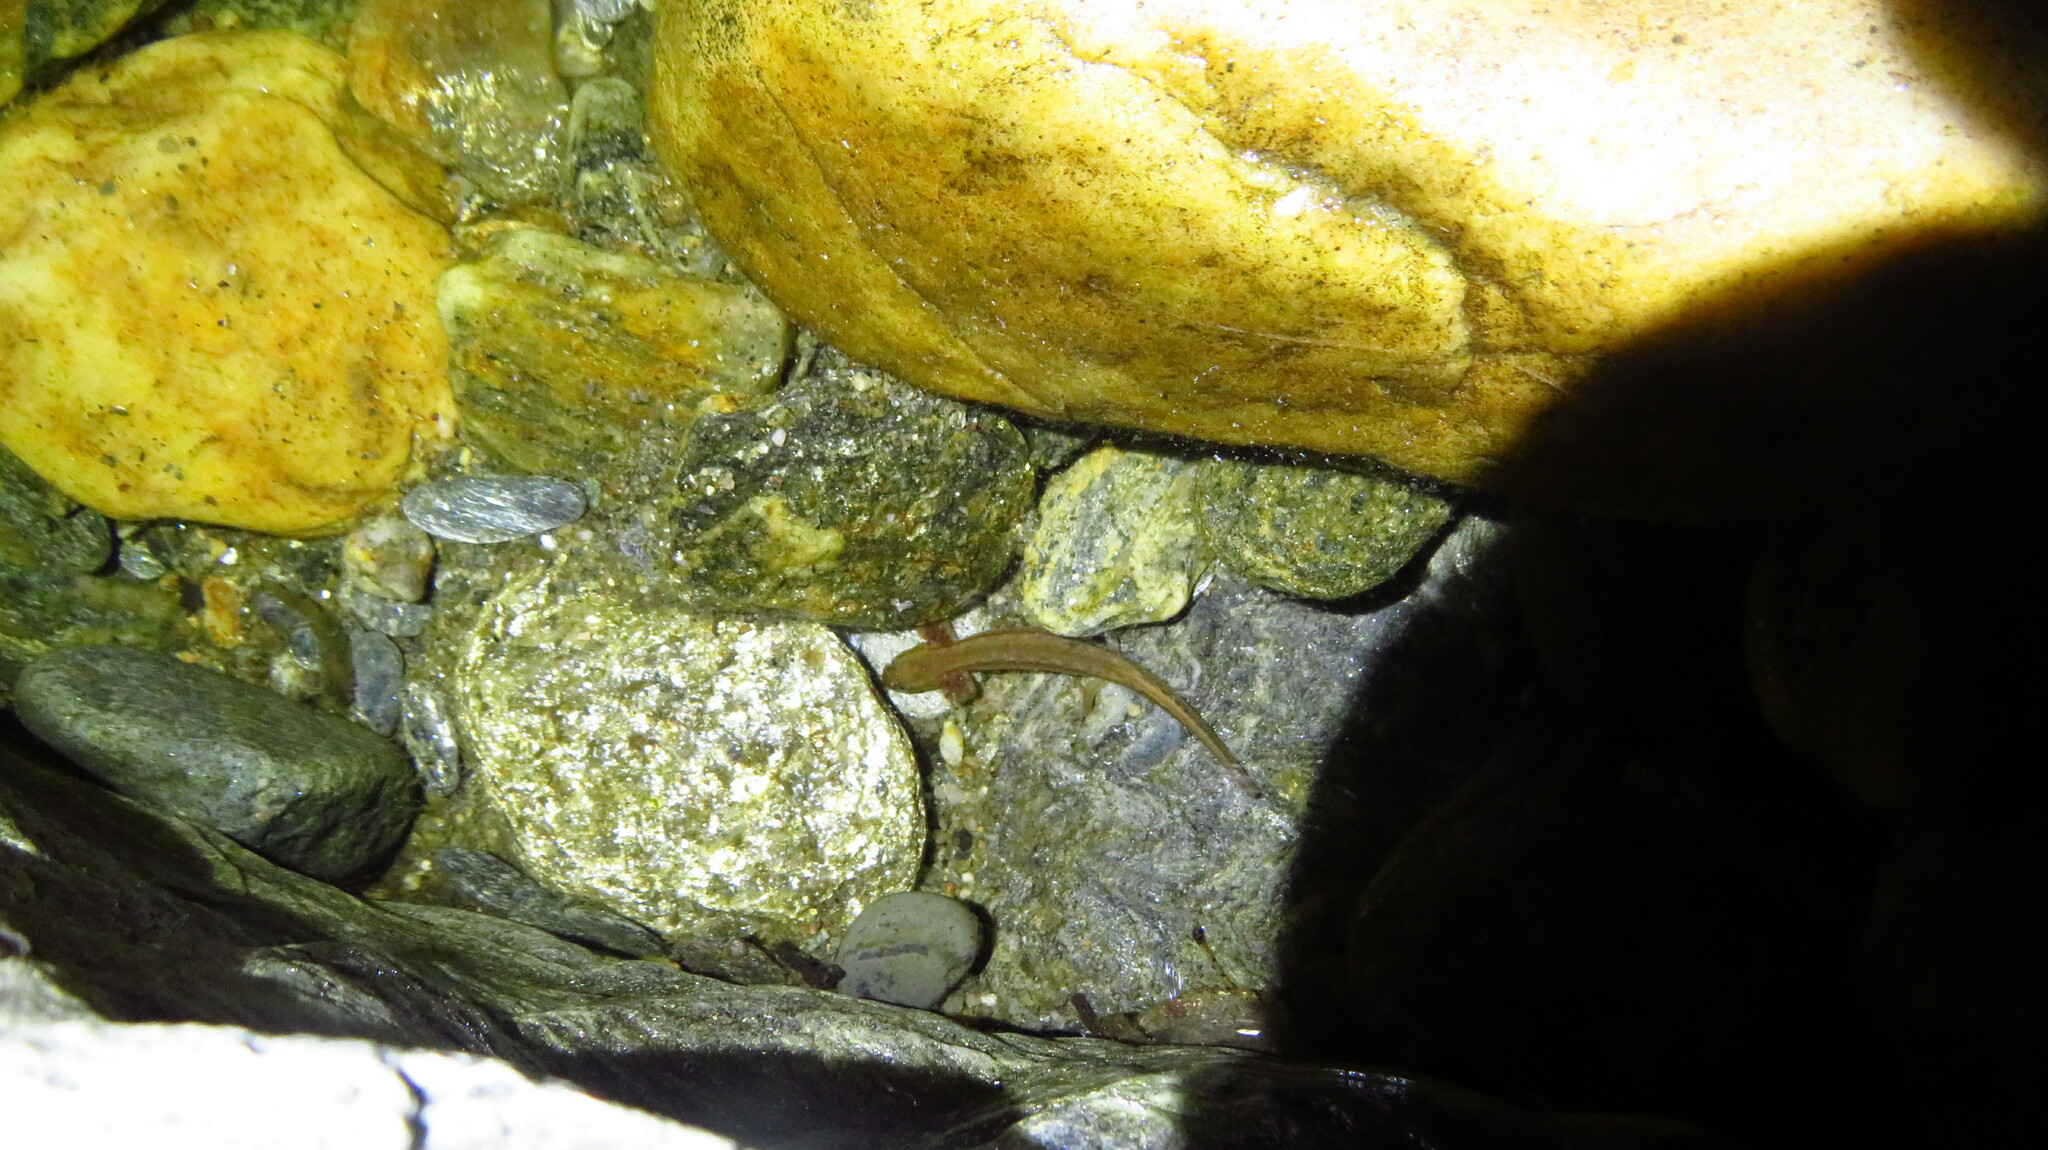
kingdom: Animalia
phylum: Chordata
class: Amphibia
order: Caudata
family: Plethodontidae
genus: Eurycea
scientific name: Eurycea bislineata
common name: Northern two-lined salamander
